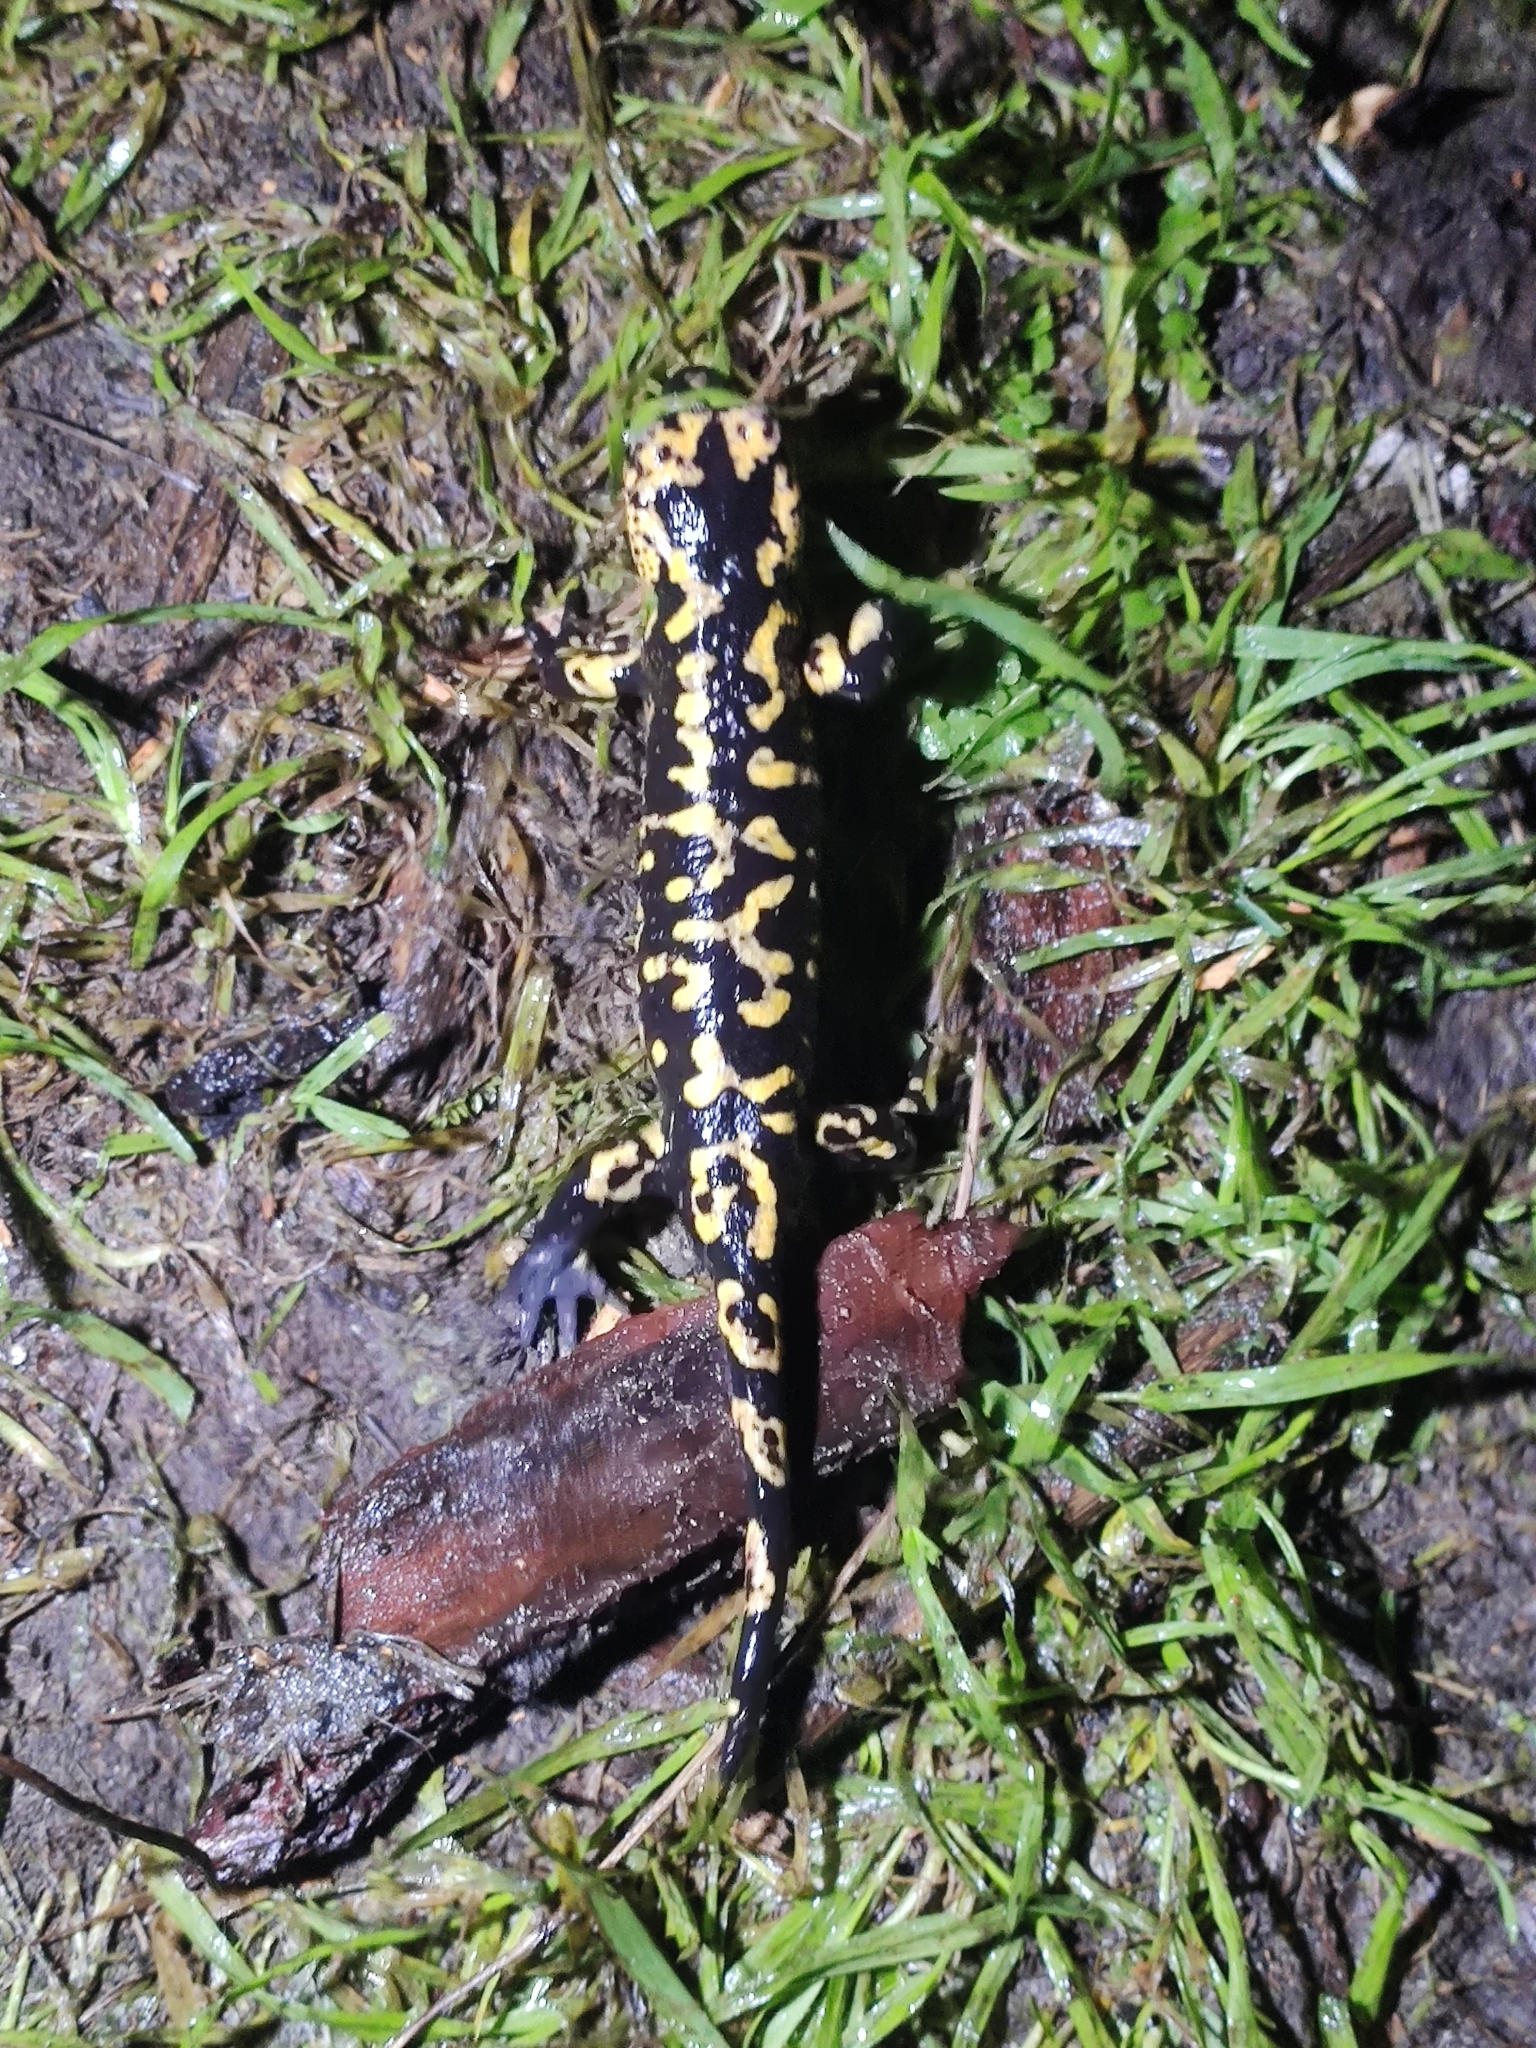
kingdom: Animalia
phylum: Chordata
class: Amphibia
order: Caudata
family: Salamandridae
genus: Salamandra
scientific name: Salamandra salamandra
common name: Fire salamander
